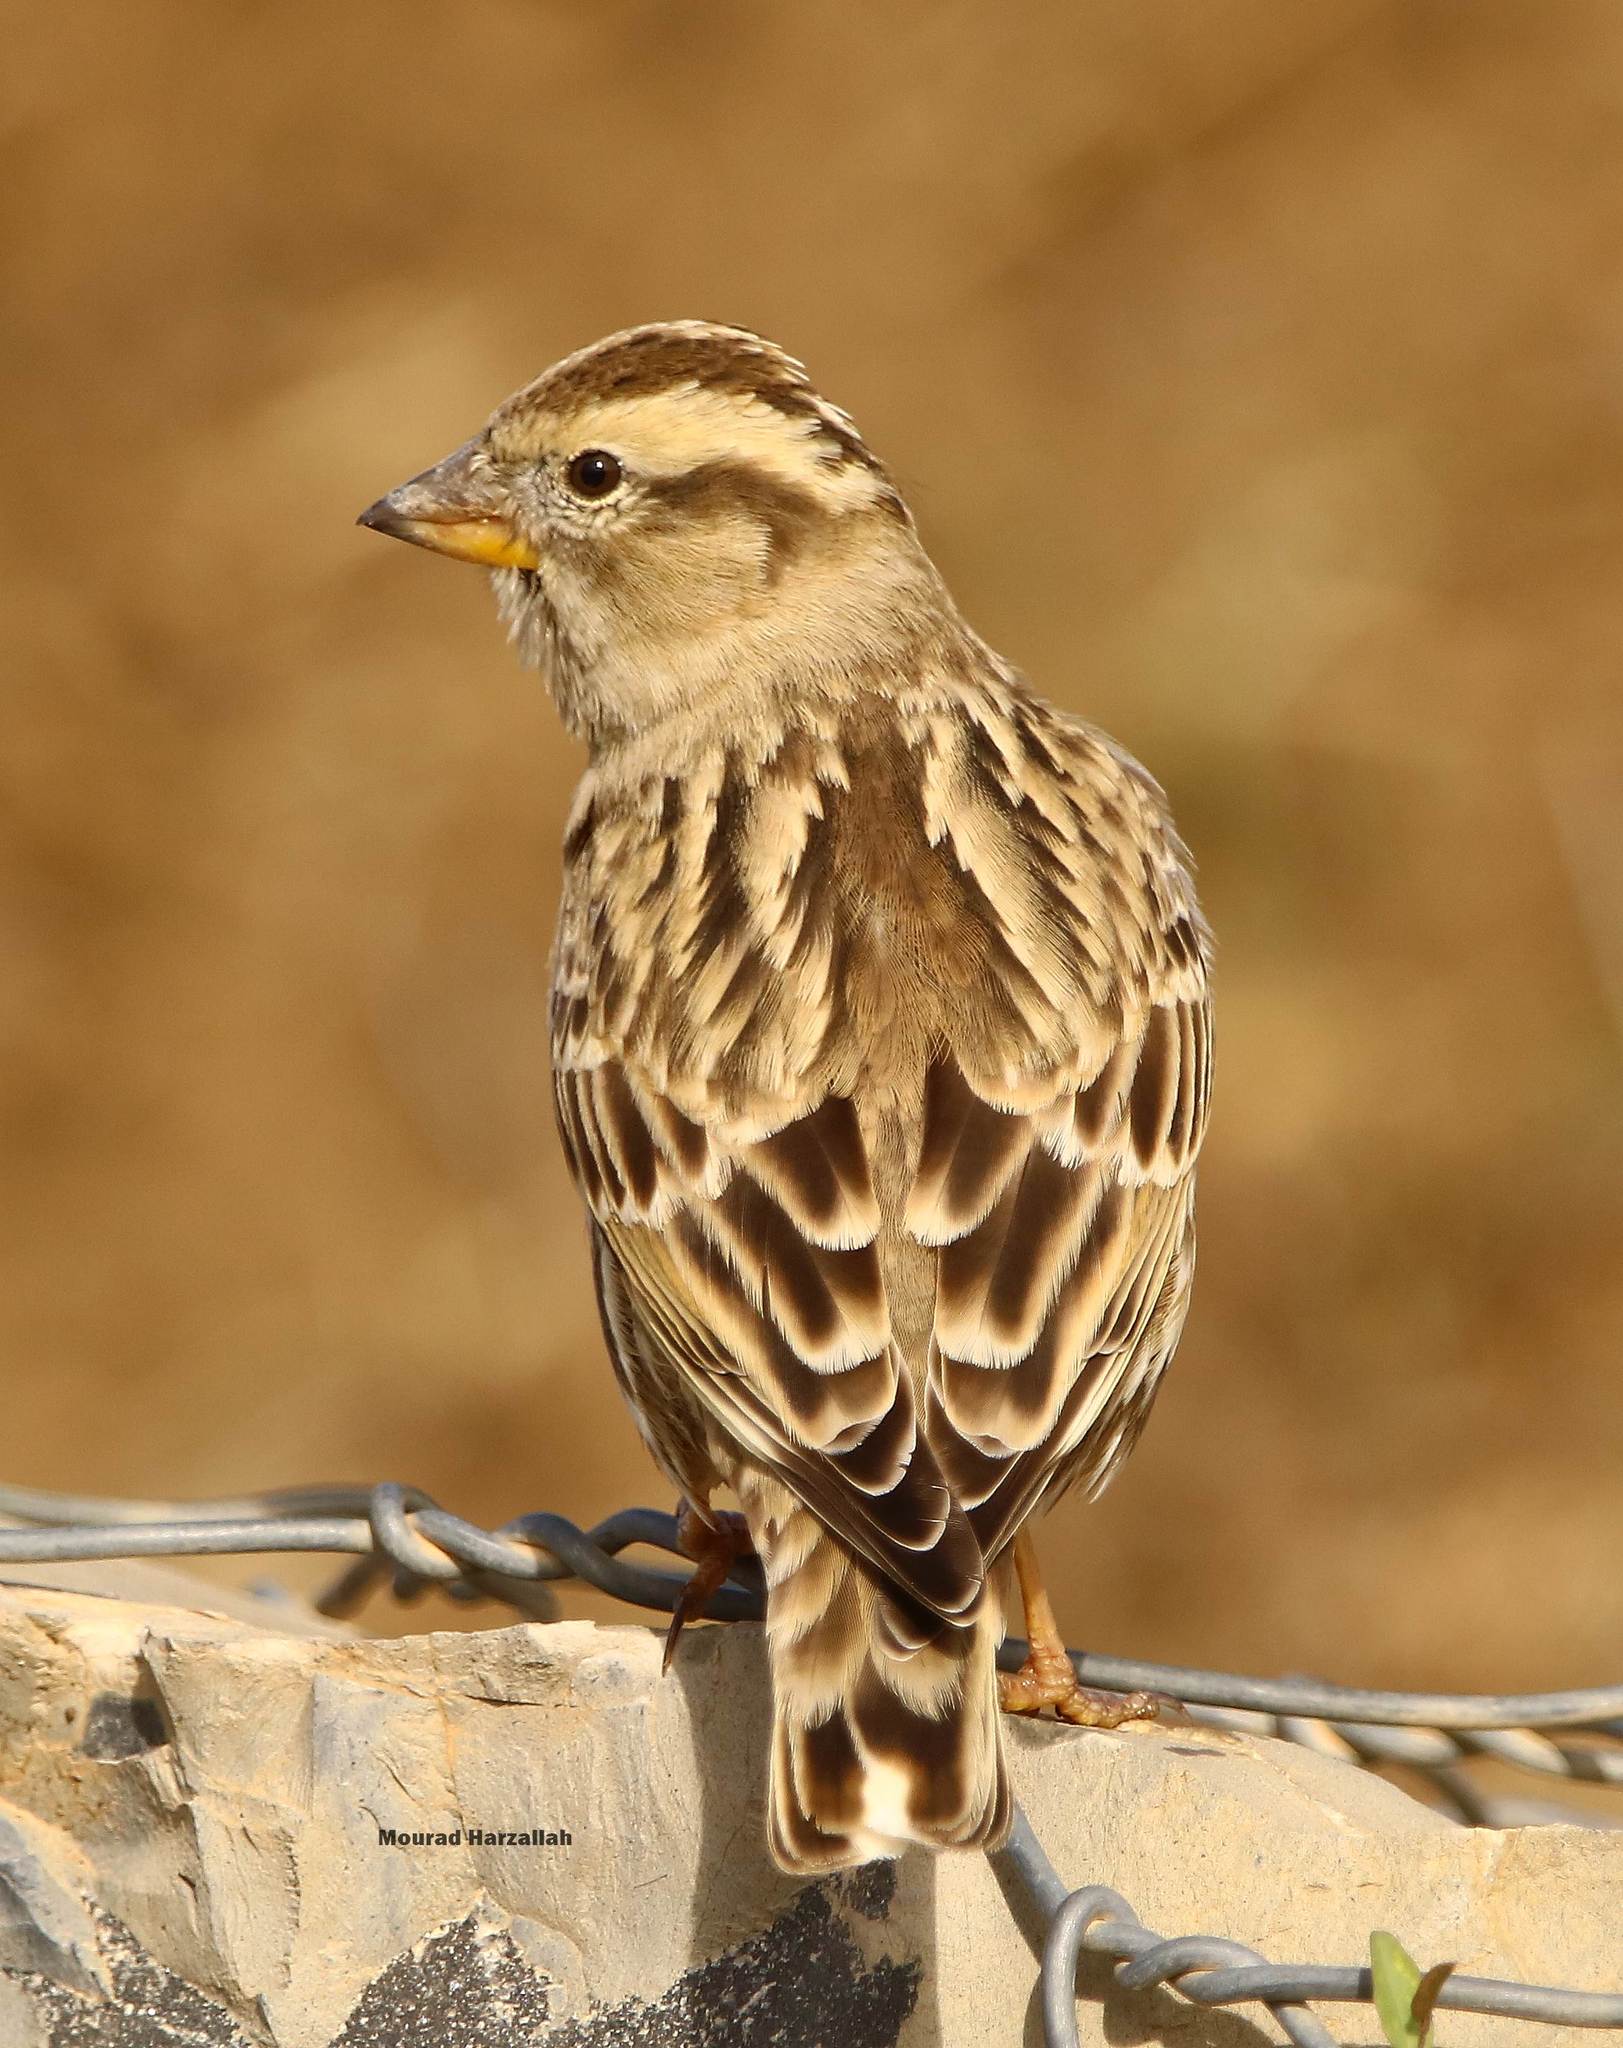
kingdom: Animalia
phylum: Chordata
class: Aves
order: Passeriformes
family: Passeridae
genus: Petronia
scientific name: Petronia petronia
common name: Rock sparrow
